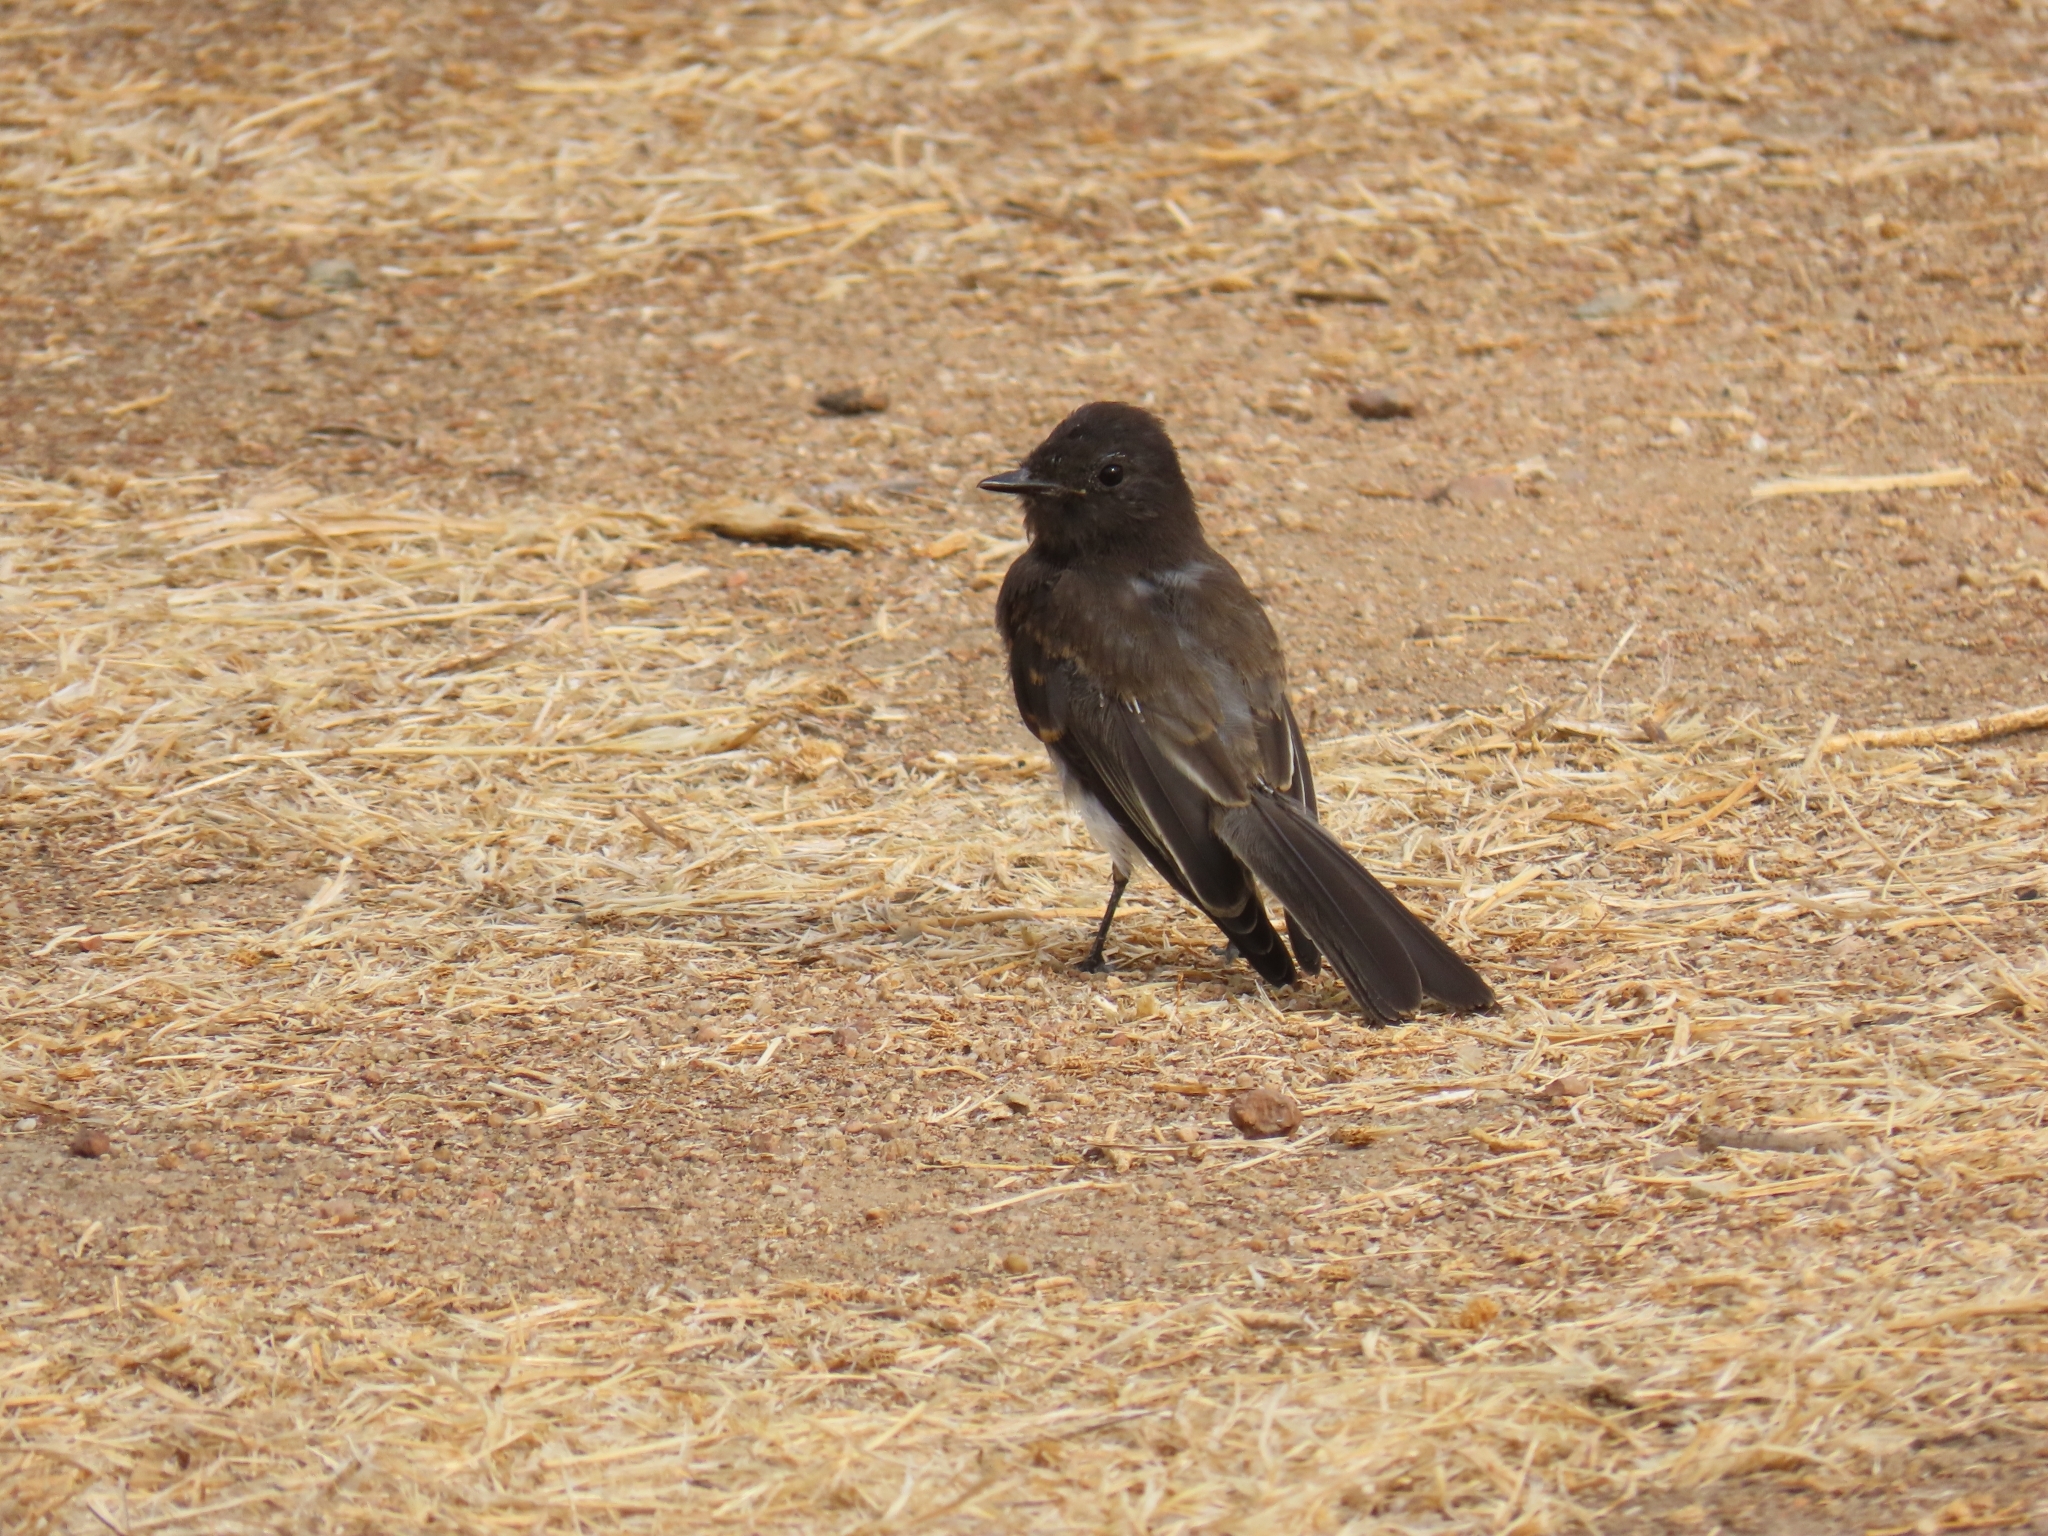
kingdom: Animalia
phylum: Chordata
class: Aves
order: Passeriformes
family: Tyrannidae
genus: Sayornis
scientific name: Sayornis nigricans
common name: Black phoebe
